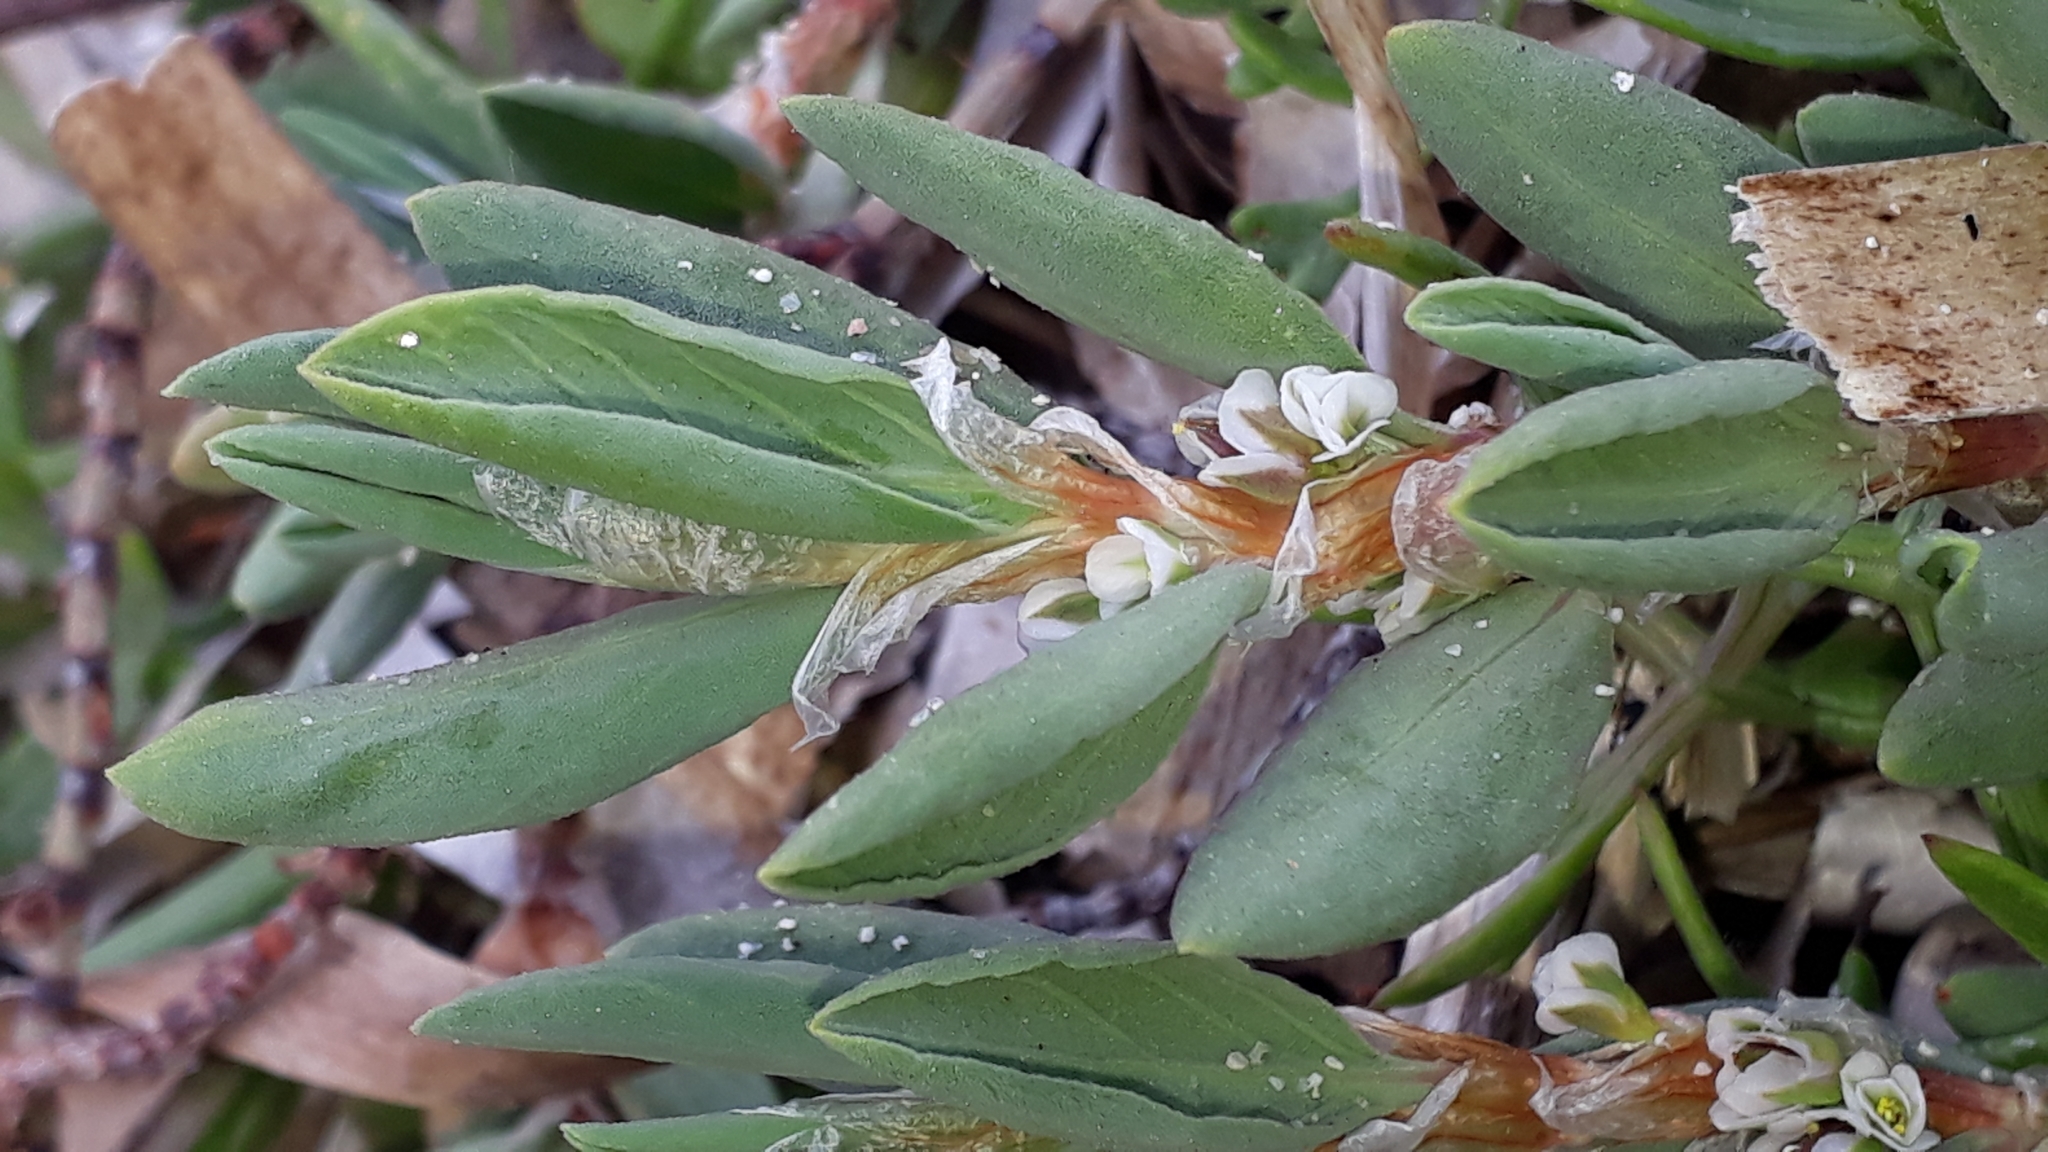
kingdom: Plantae
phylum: Tracheophyta
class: Magnoliopsida
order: Caryophyllales
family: Polygonaceae
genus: Polygonum
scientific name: Polygonum maritimum
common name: Sea knotgrass
